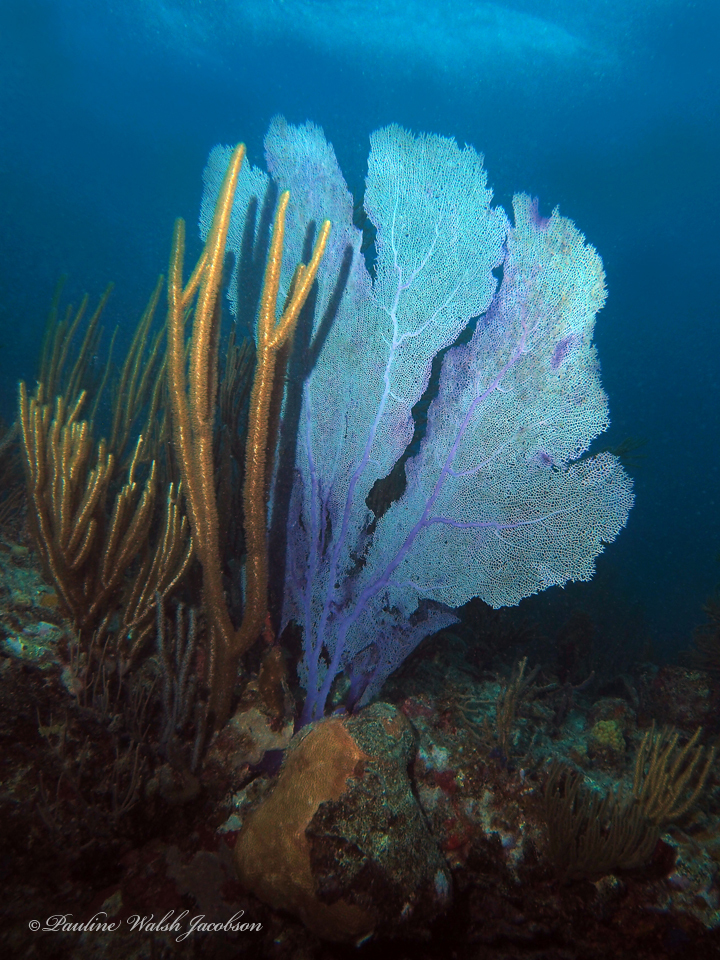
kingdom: Animalia
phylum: Cnidaria
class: Anthozoa
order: Malacalcyonacea
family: Gorgoniidae
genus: Gorgonia
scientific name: Gorgonia ventalina
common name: Common sea fan
